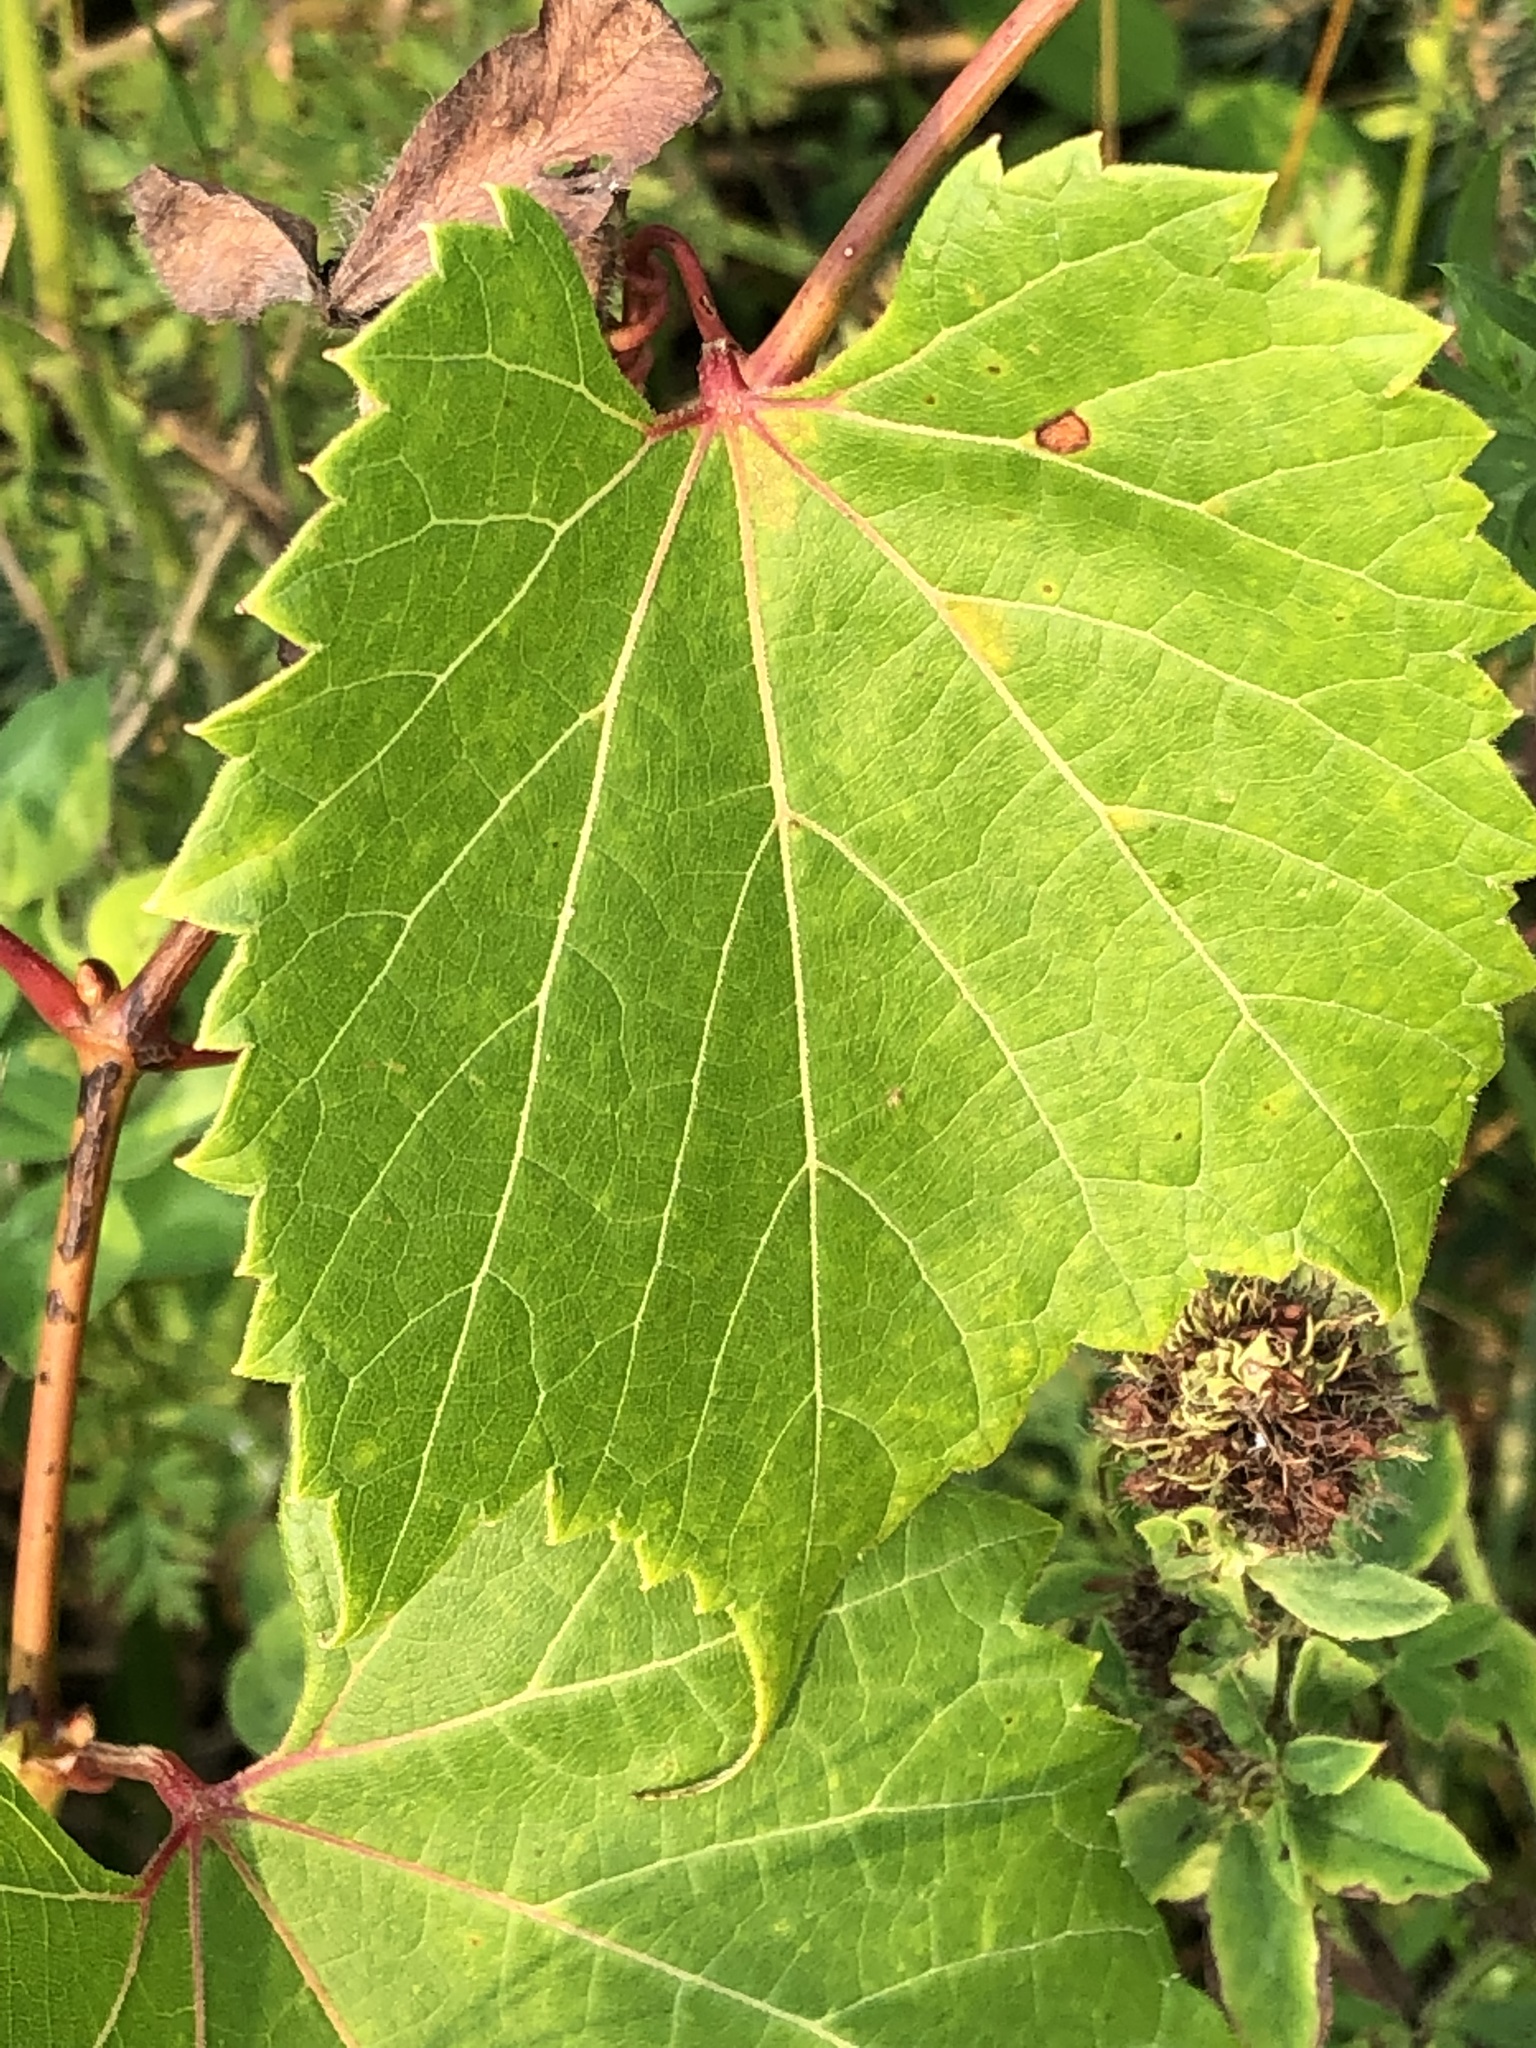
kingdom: Plantae
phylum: Tracheophyta
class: Magnoliopsida
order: Vitales
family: Vitaceae
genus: Vitis
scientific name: Vitis riparia
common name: Frost grape
